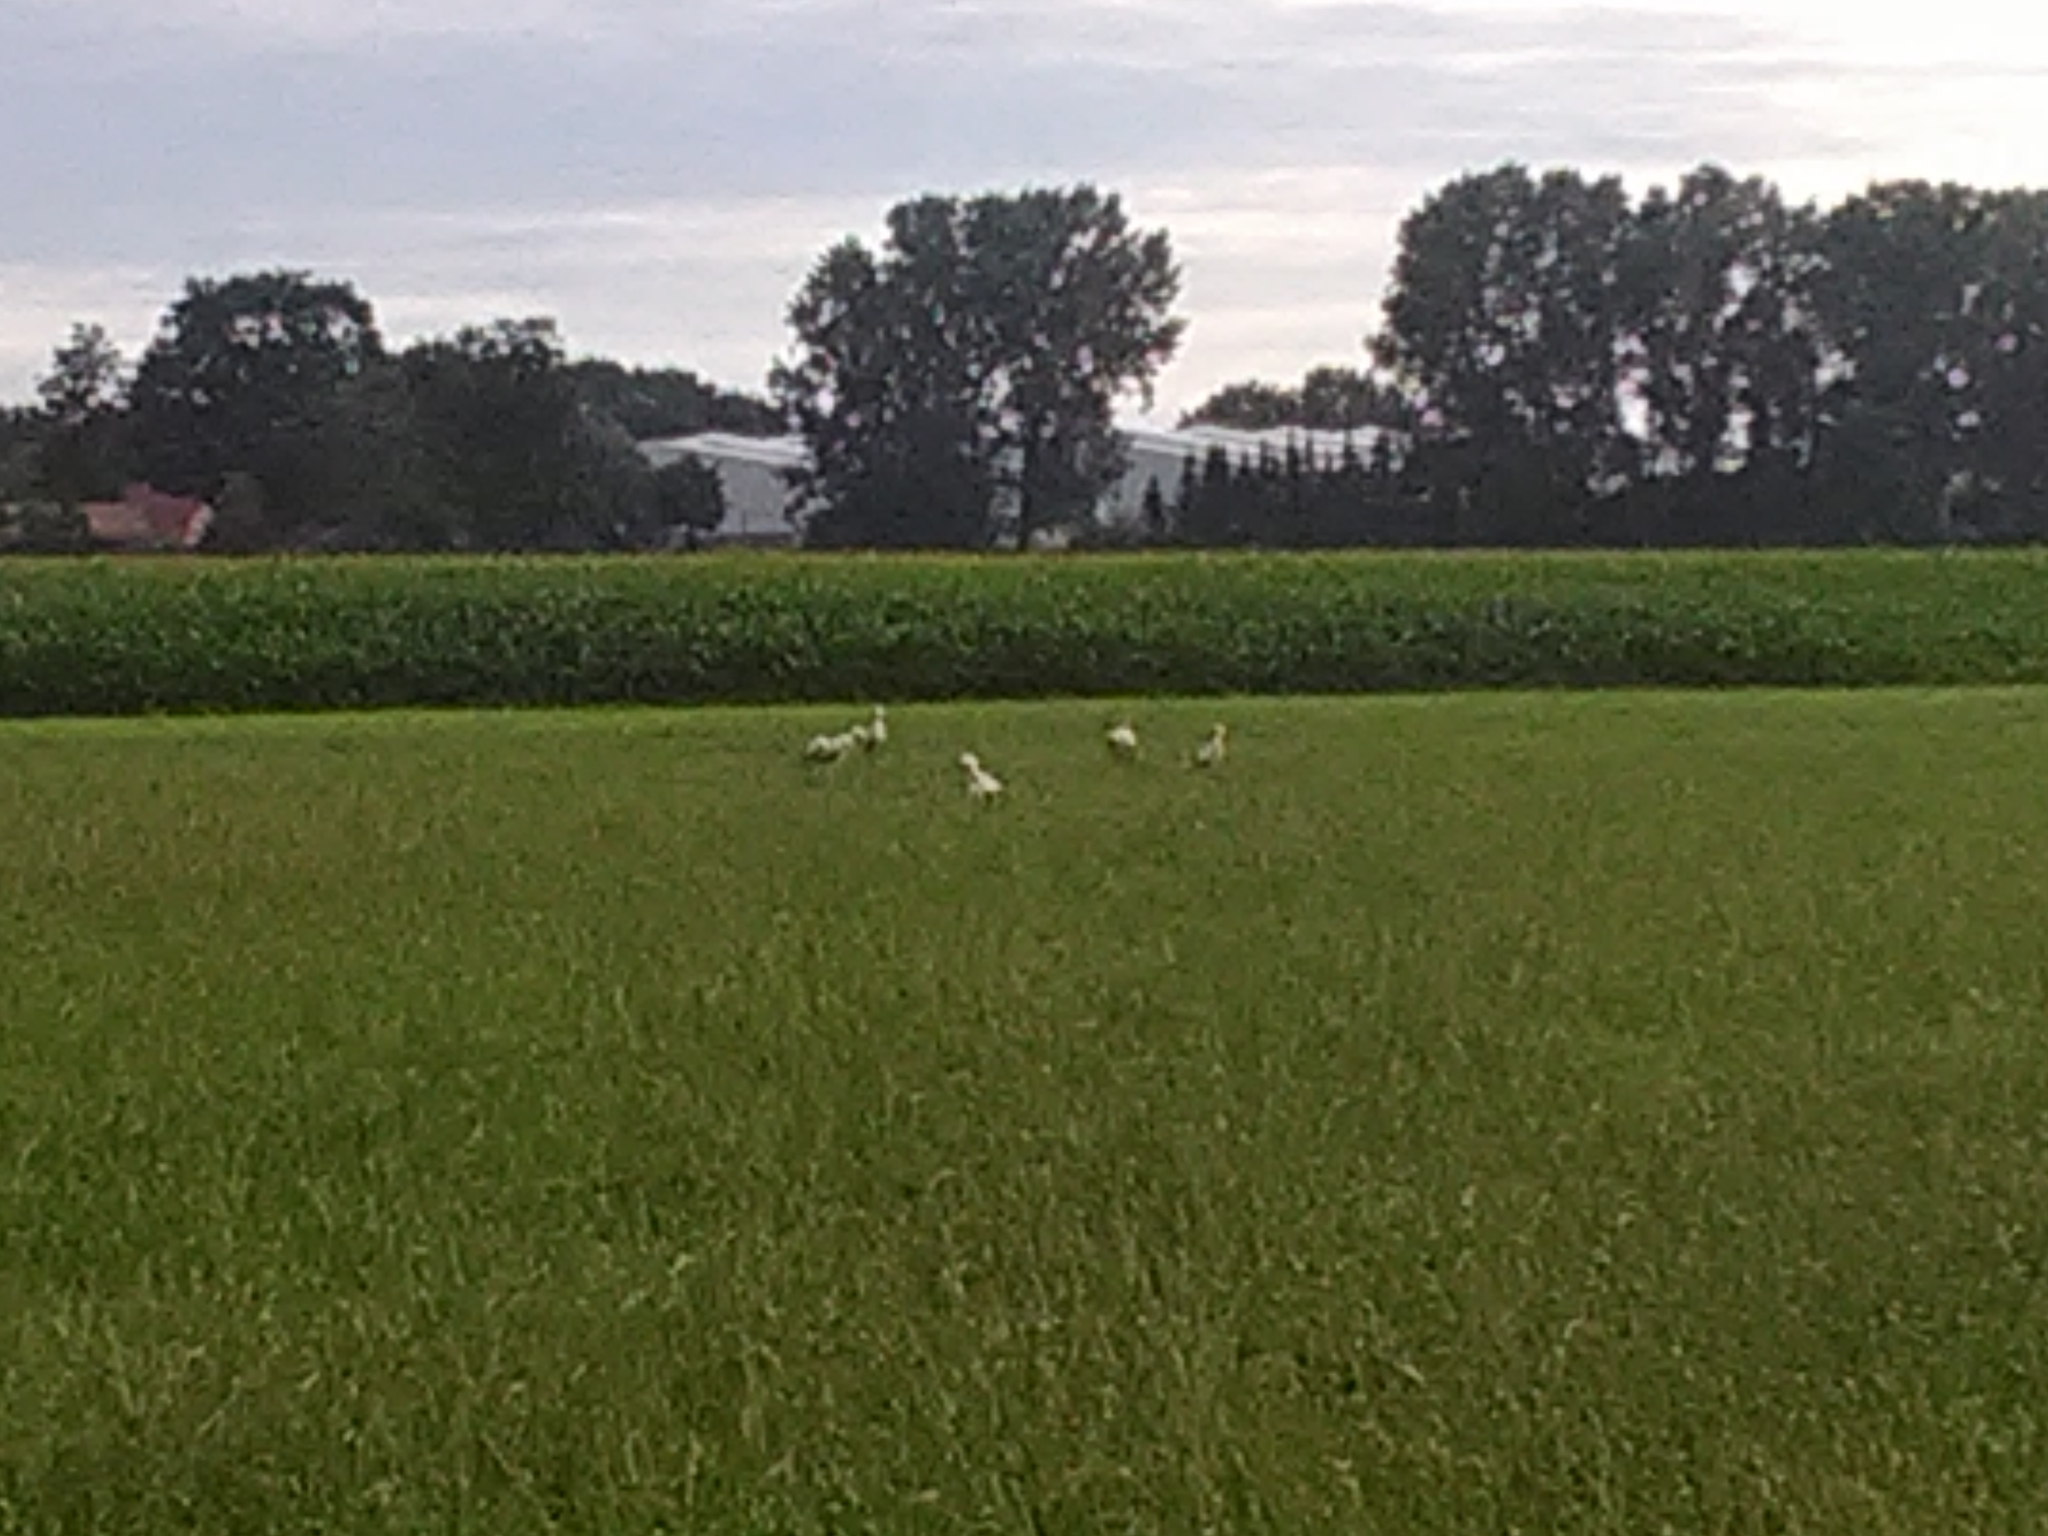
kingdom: Animalia
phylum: Chordata
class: Aves
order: Ciconiiformes
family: Ciconiidae
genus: Ciconia
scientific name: Ciconia ciconia
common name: White stork
